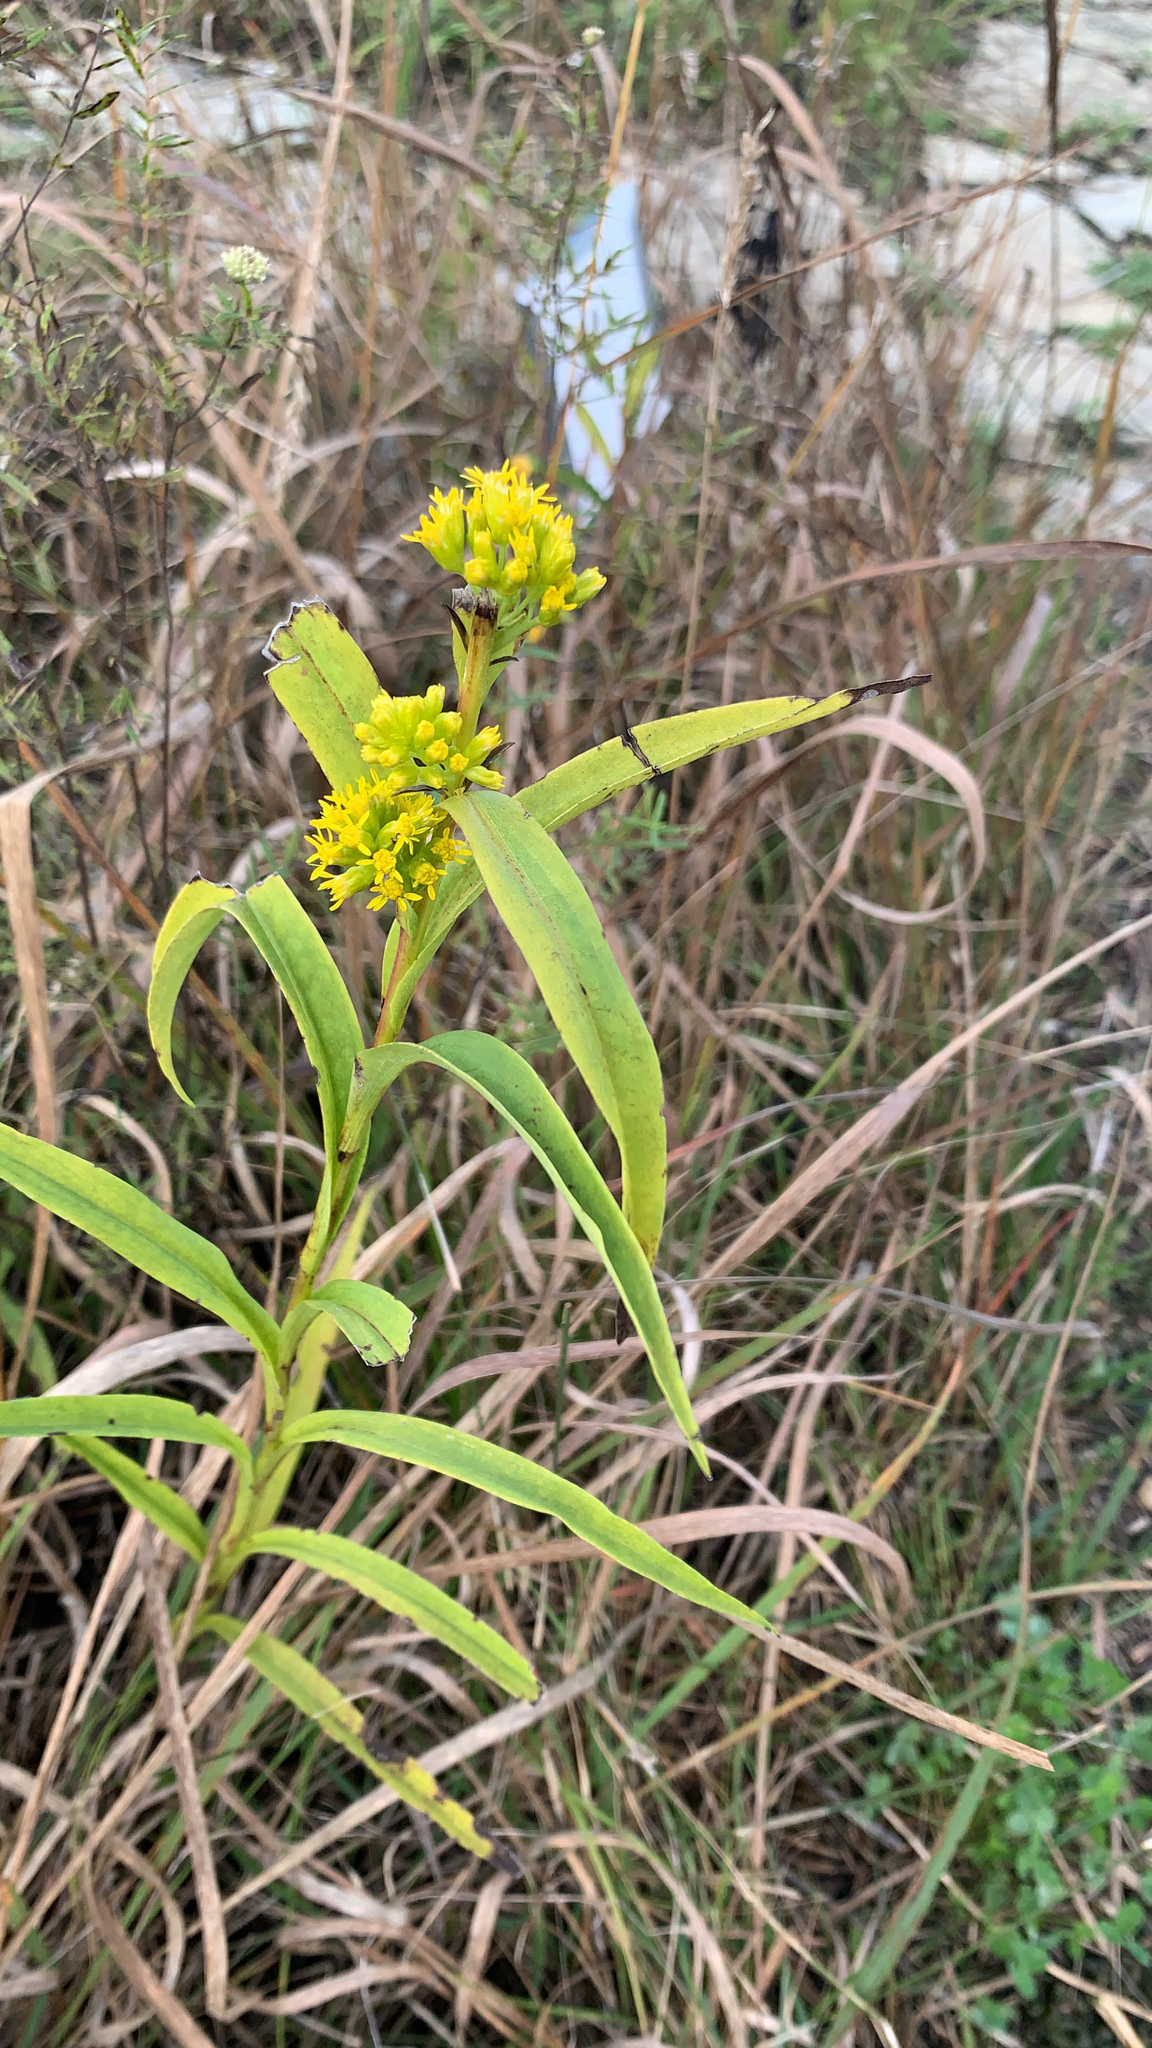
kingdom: Plantae
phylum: Tracheophyta
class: Magnoliopsida
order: Asterales
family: Asteraceae
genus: Solidago
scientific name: Solidago riddellii
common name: Riddell's goldenrod
